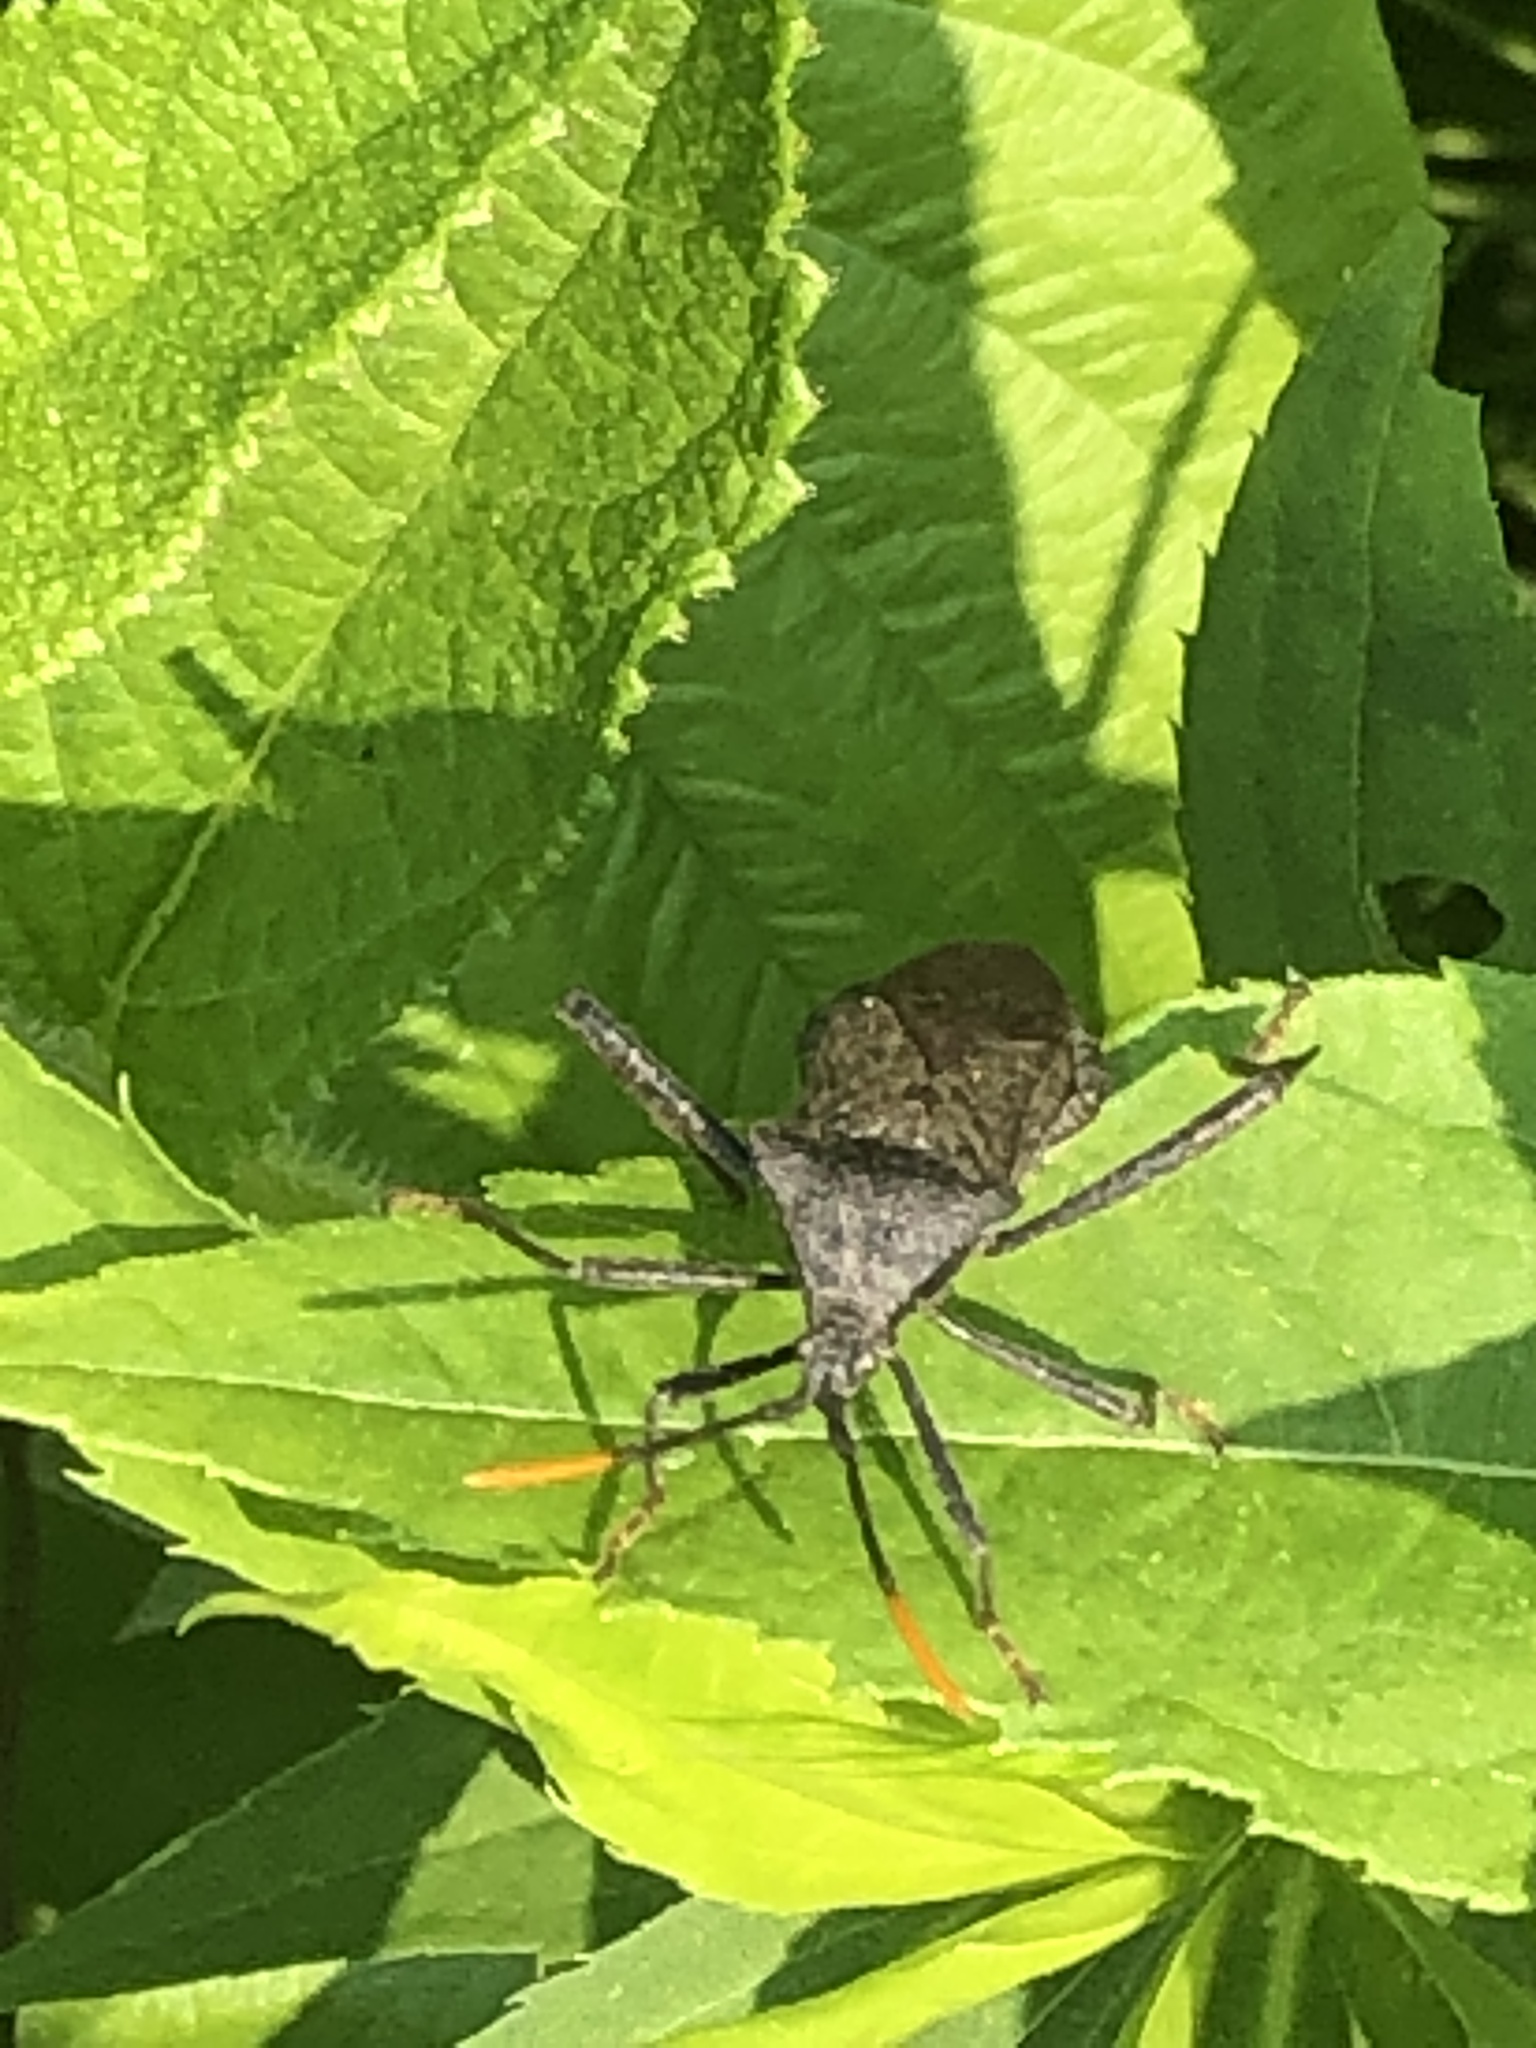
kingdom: Animalia
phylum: Arthropoda
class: Insecta
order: Hemiptera
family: Coreidae
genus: Acanthocephala
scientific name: Acanthocephala terminalis
